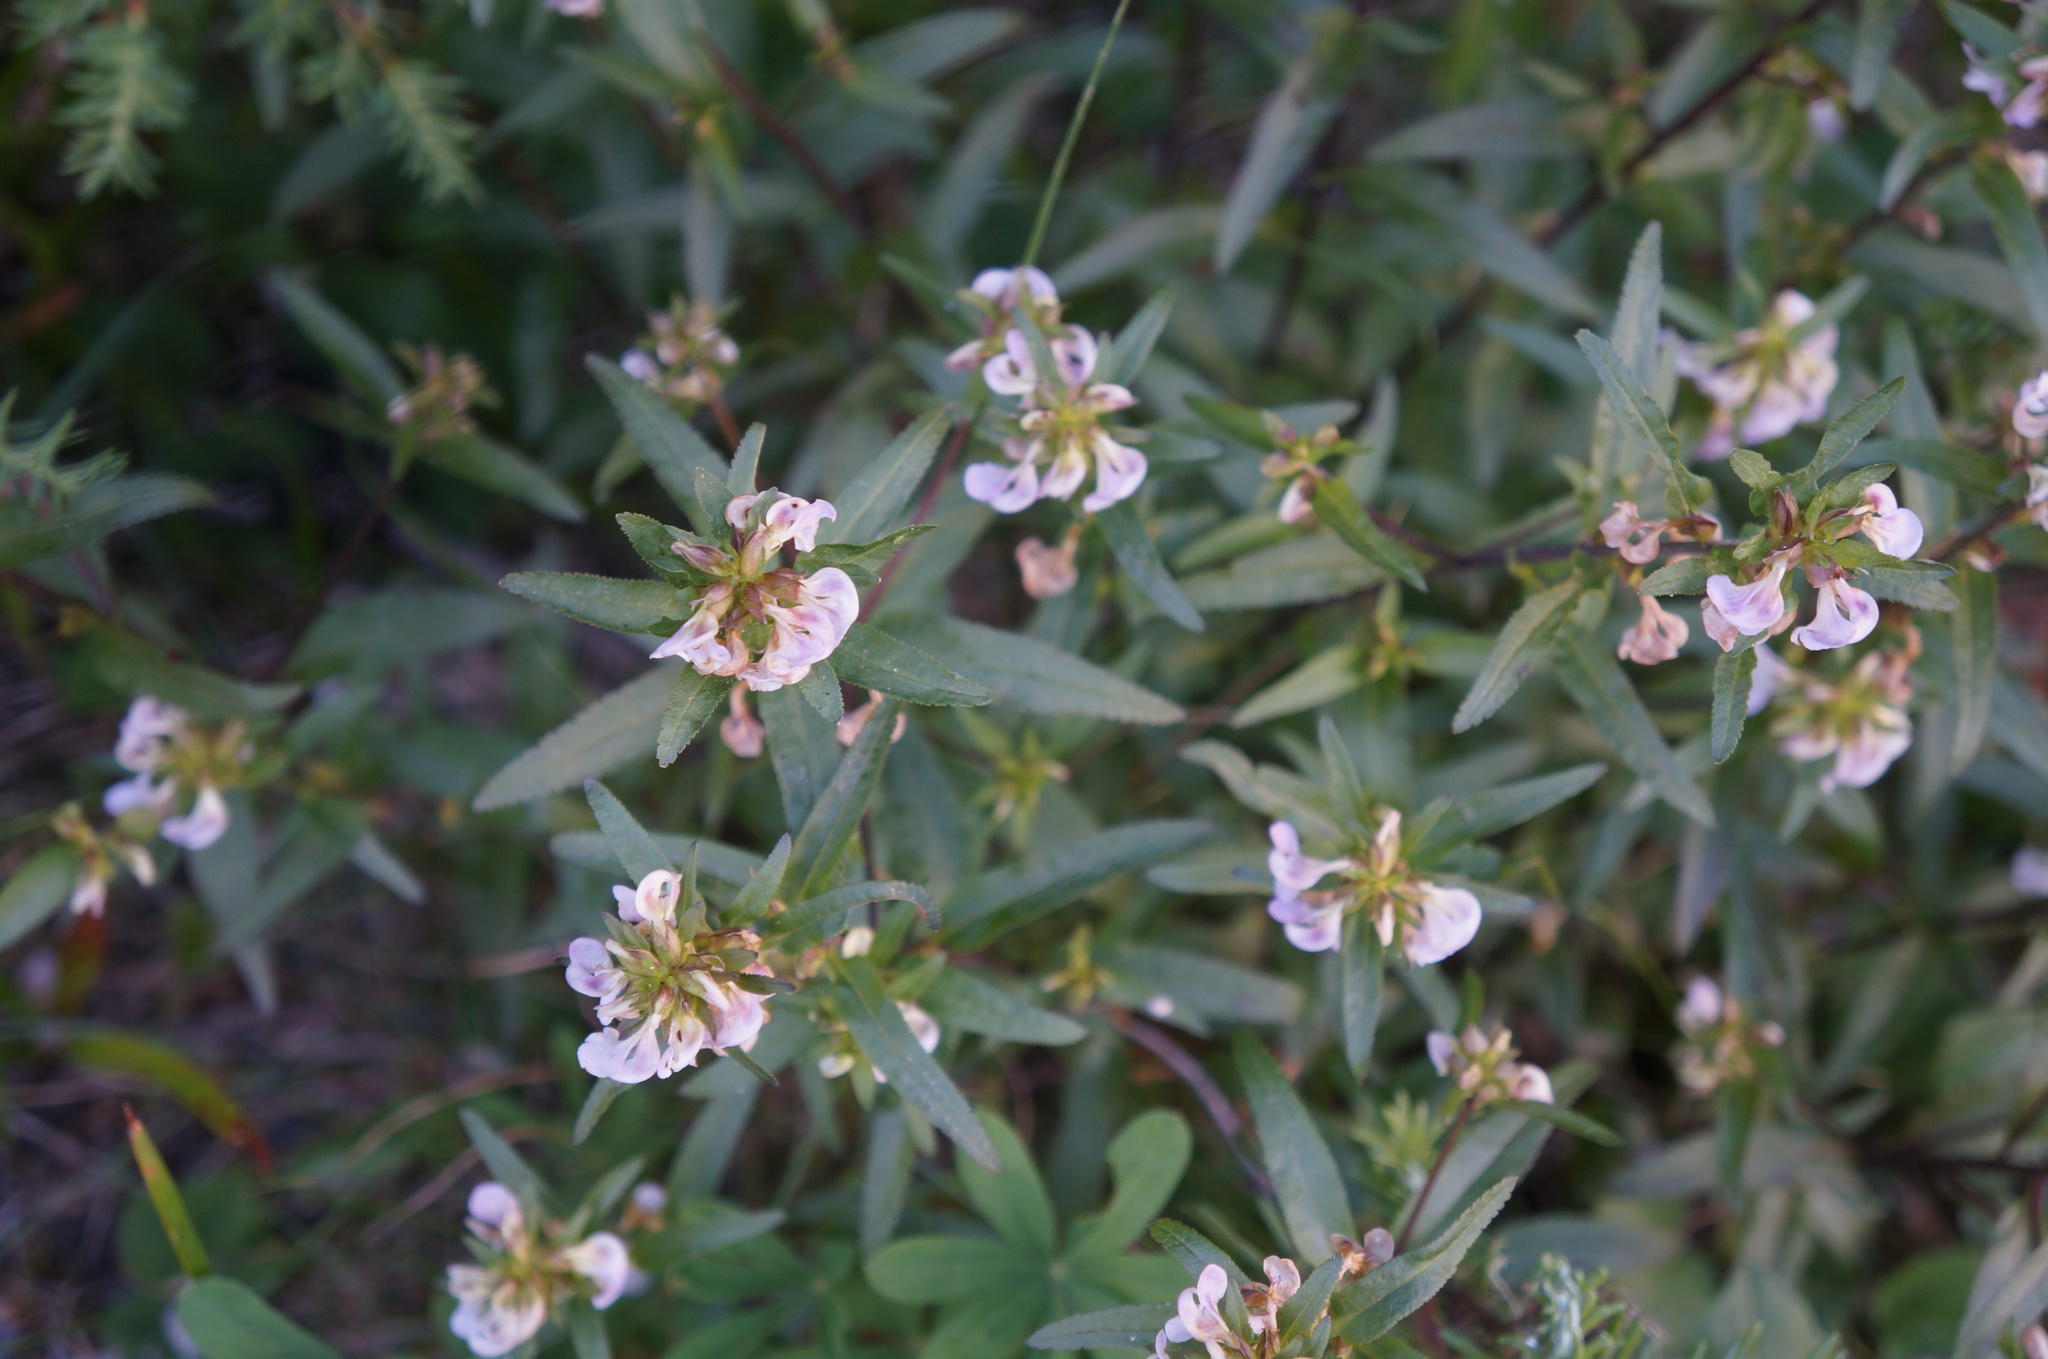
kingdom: Plantae
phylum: Tracheophyta
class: Magnoliopsida
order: Lamiales
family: Orobanchaceae
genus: Pedicularis
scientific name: Pedicularis racemosa
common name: Leafy lousewort
